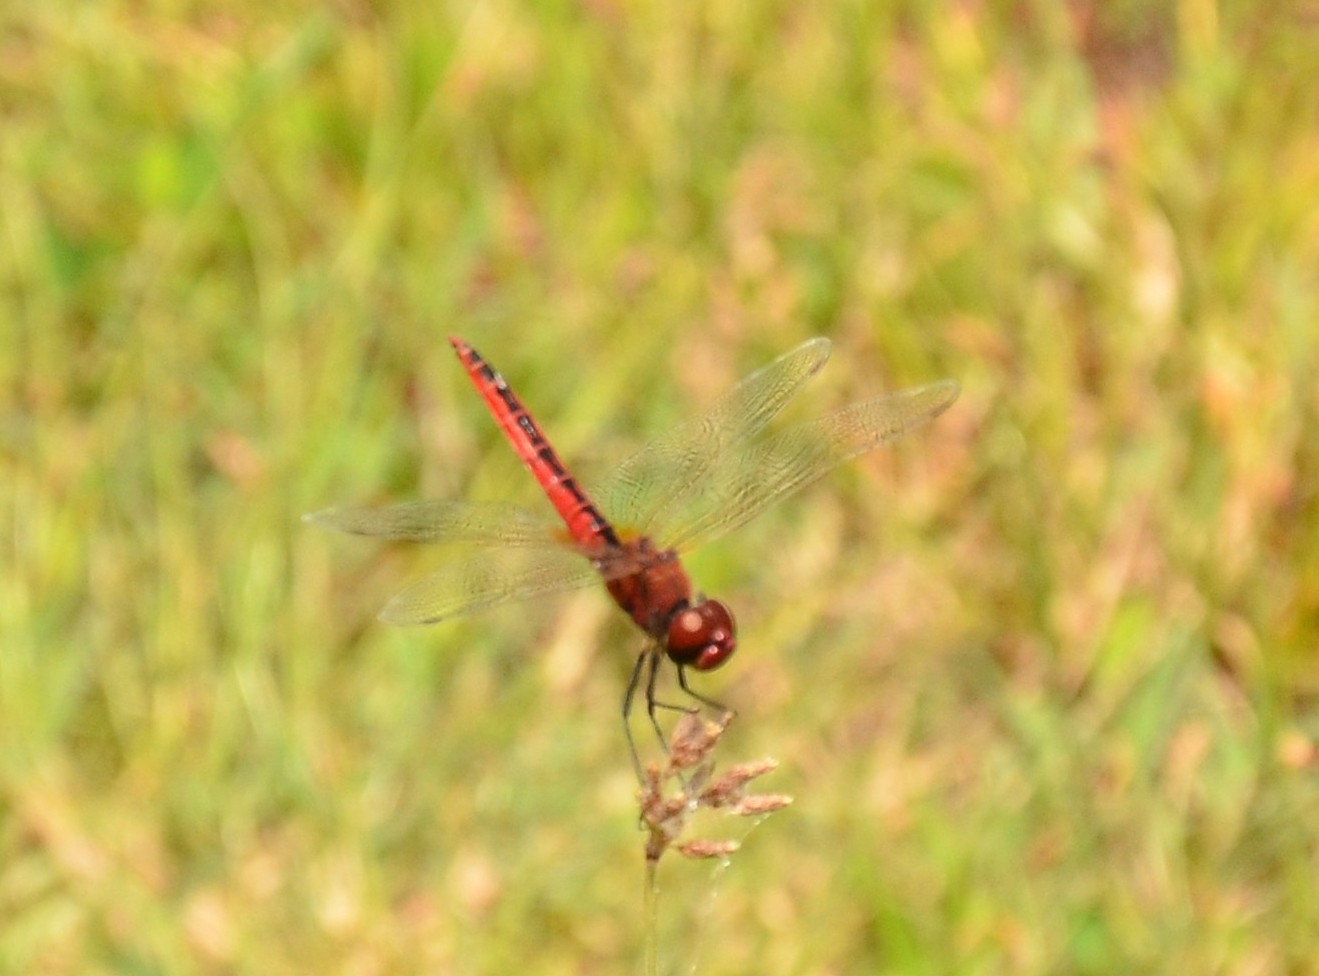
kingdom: Animalia
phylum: Arthropoda
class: Insecta
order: Odonata
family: Libellulidae
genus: Macrodiplax
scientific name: Macrodiplax cora
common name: Coastal glider
